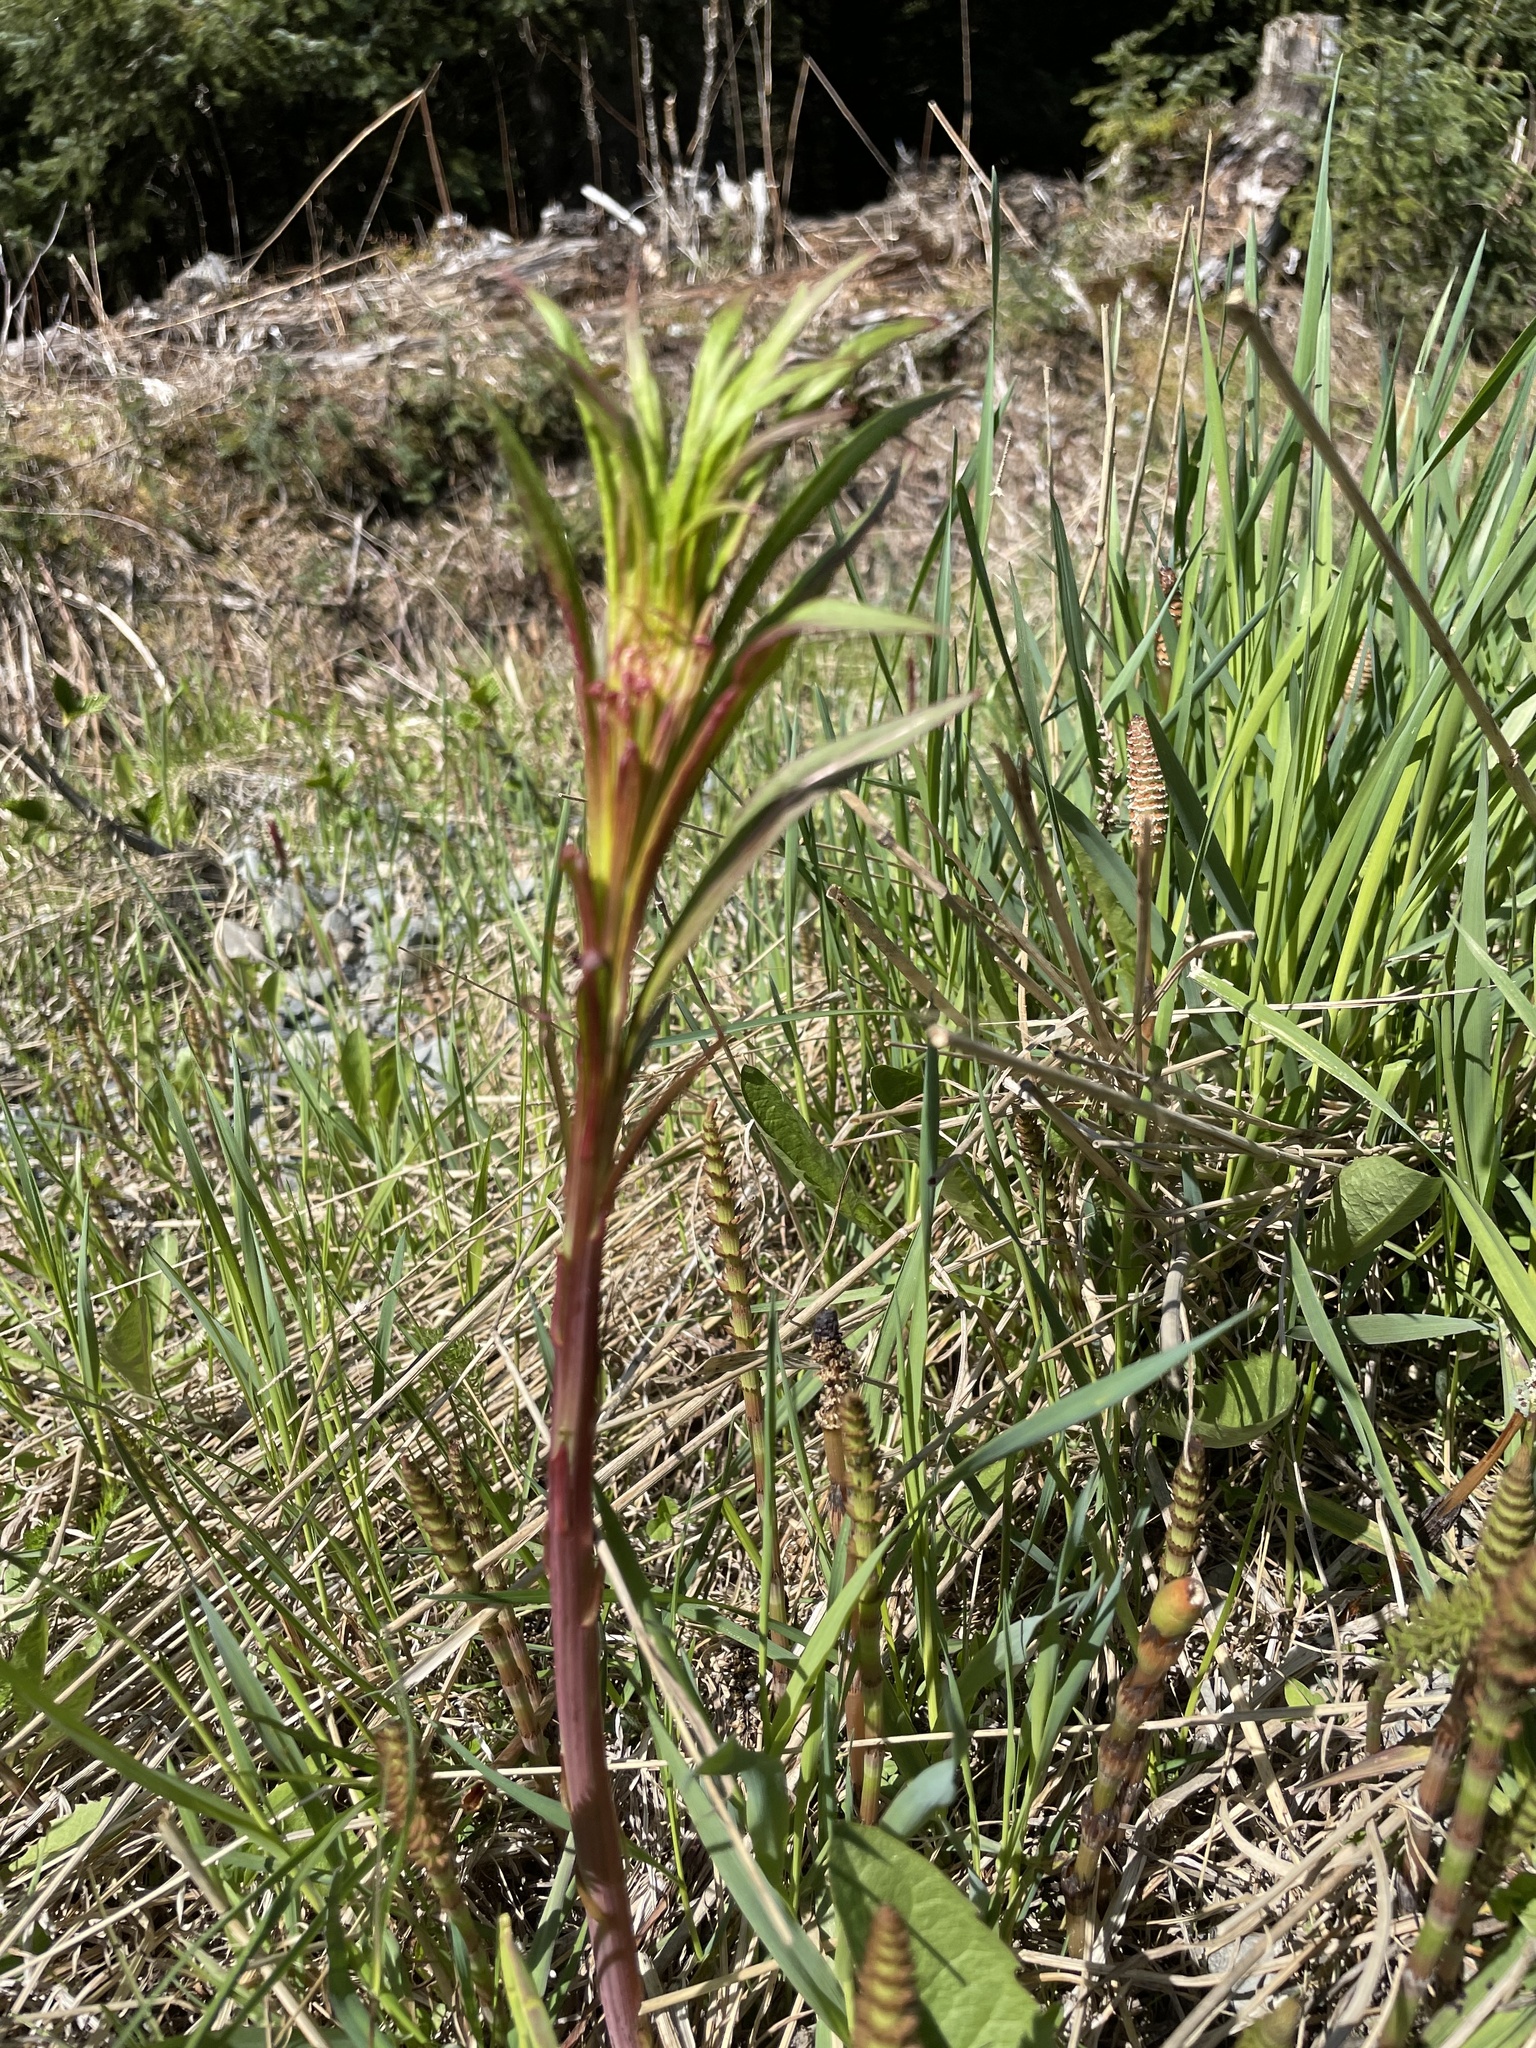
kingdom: Plantae
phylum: Tracheophyta
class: Magnoliopsida
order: Myrtales
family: Onagraceae
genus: Chamaenerion
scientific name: Chamaenerion angustifolium
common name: Fireweed
